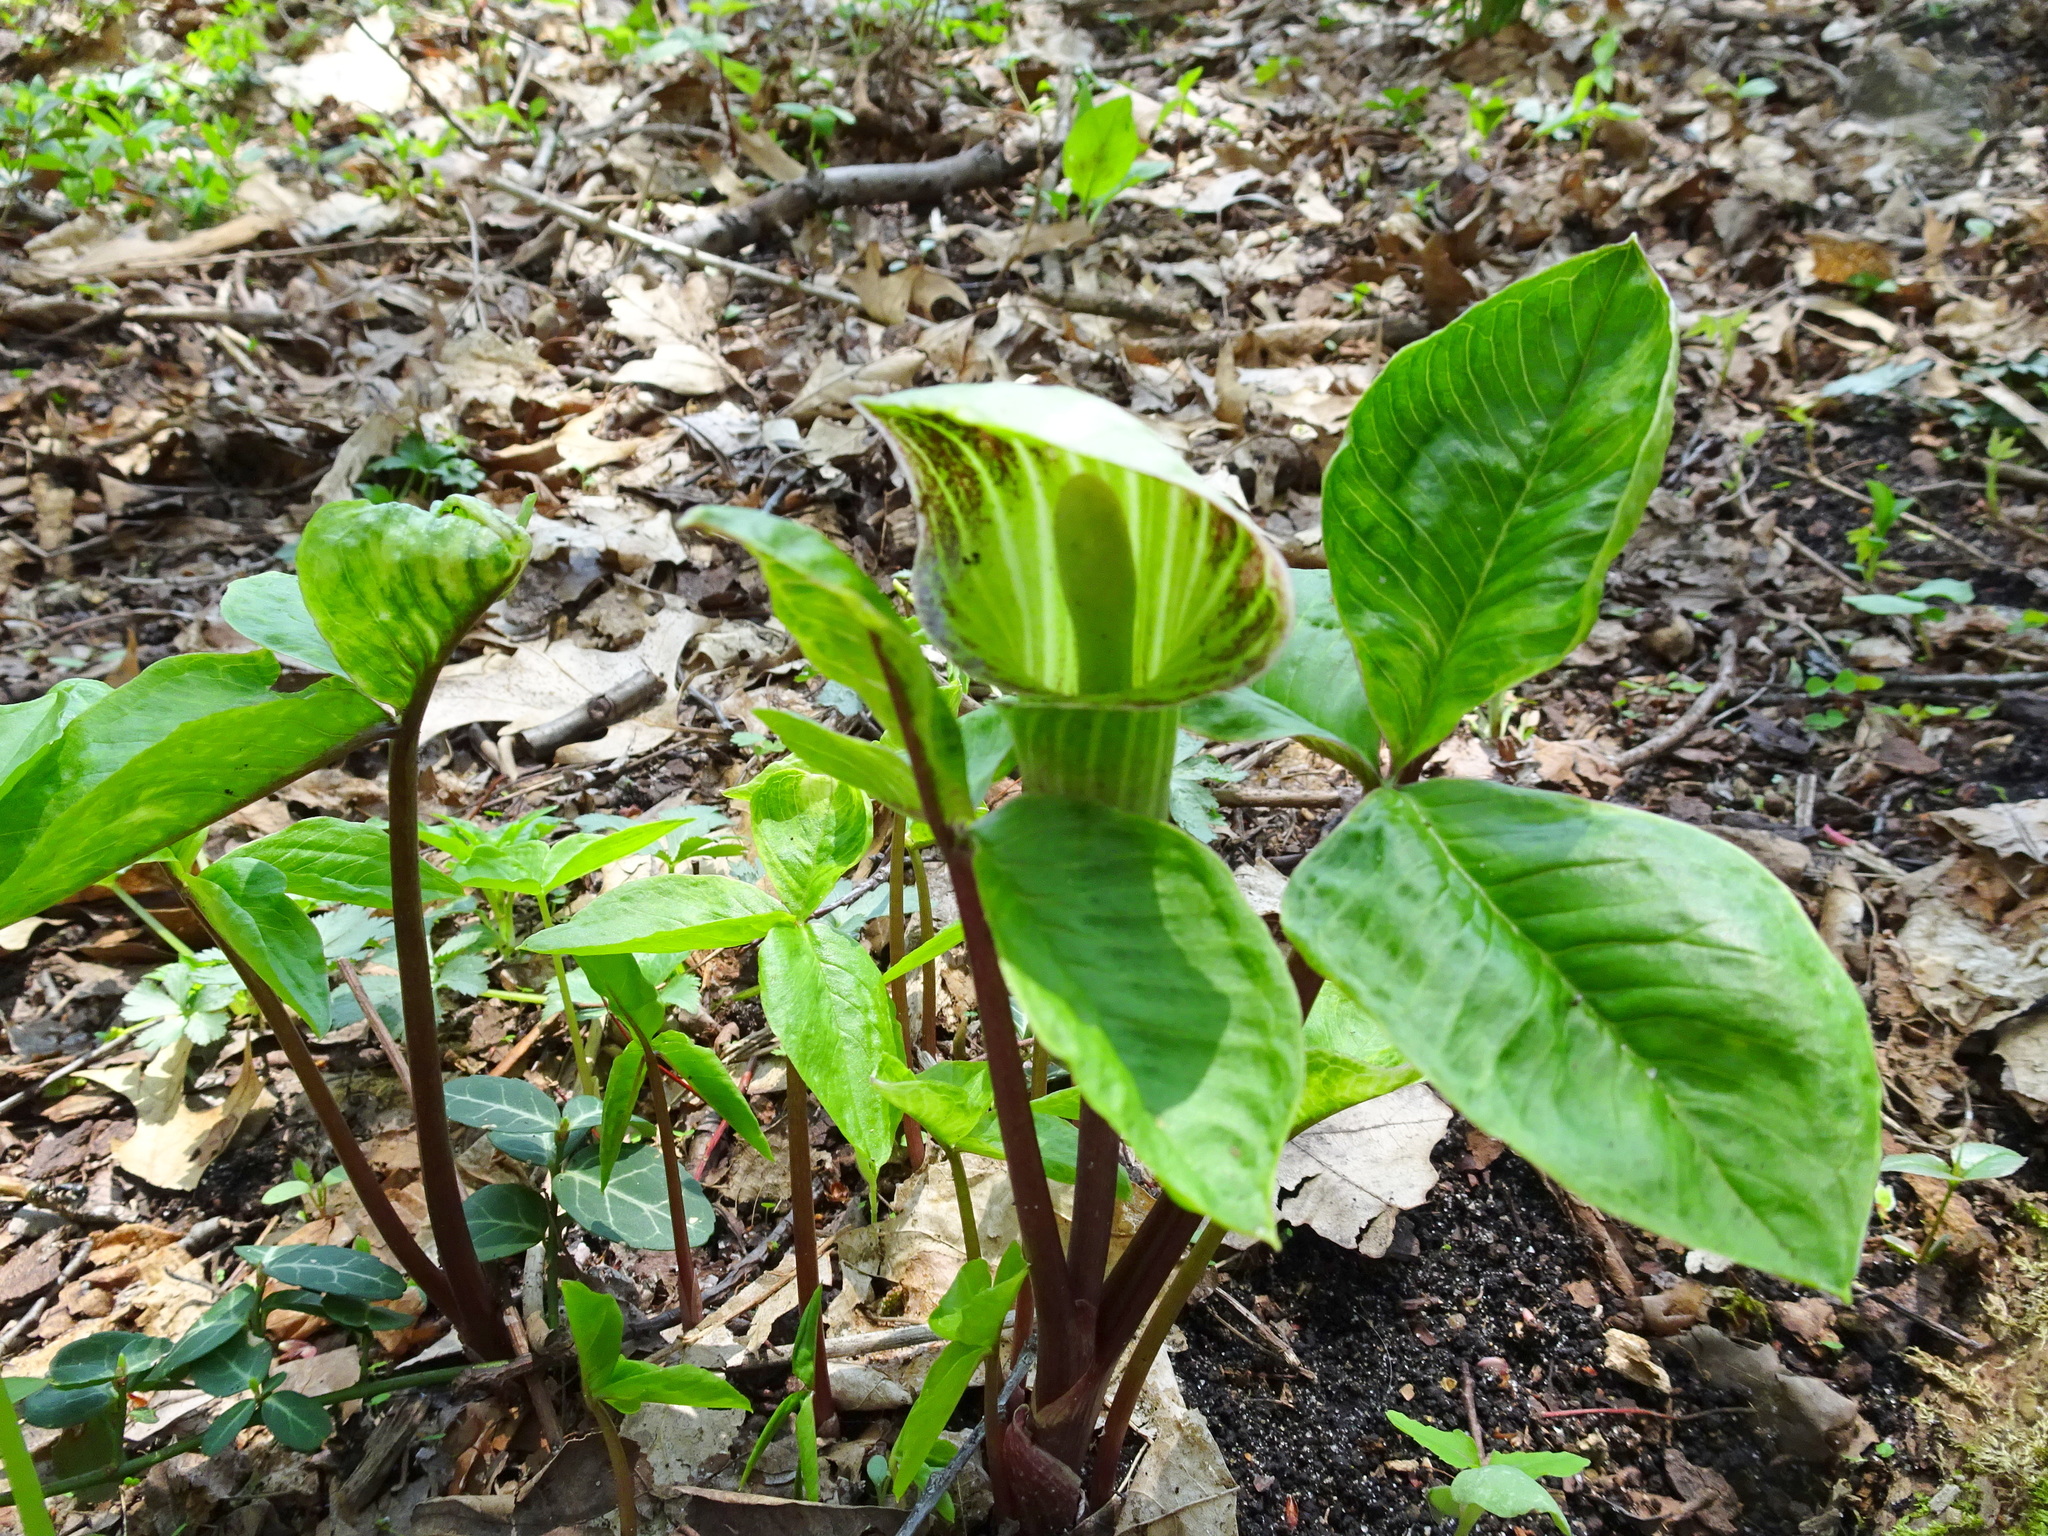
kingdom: Plantae
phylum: Tracheophyta
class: Liliopsida
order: Alismatales
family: Araceae
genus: Arisaema
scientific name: Arisaema triphyllum
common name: Jack-in-the-pulpit
